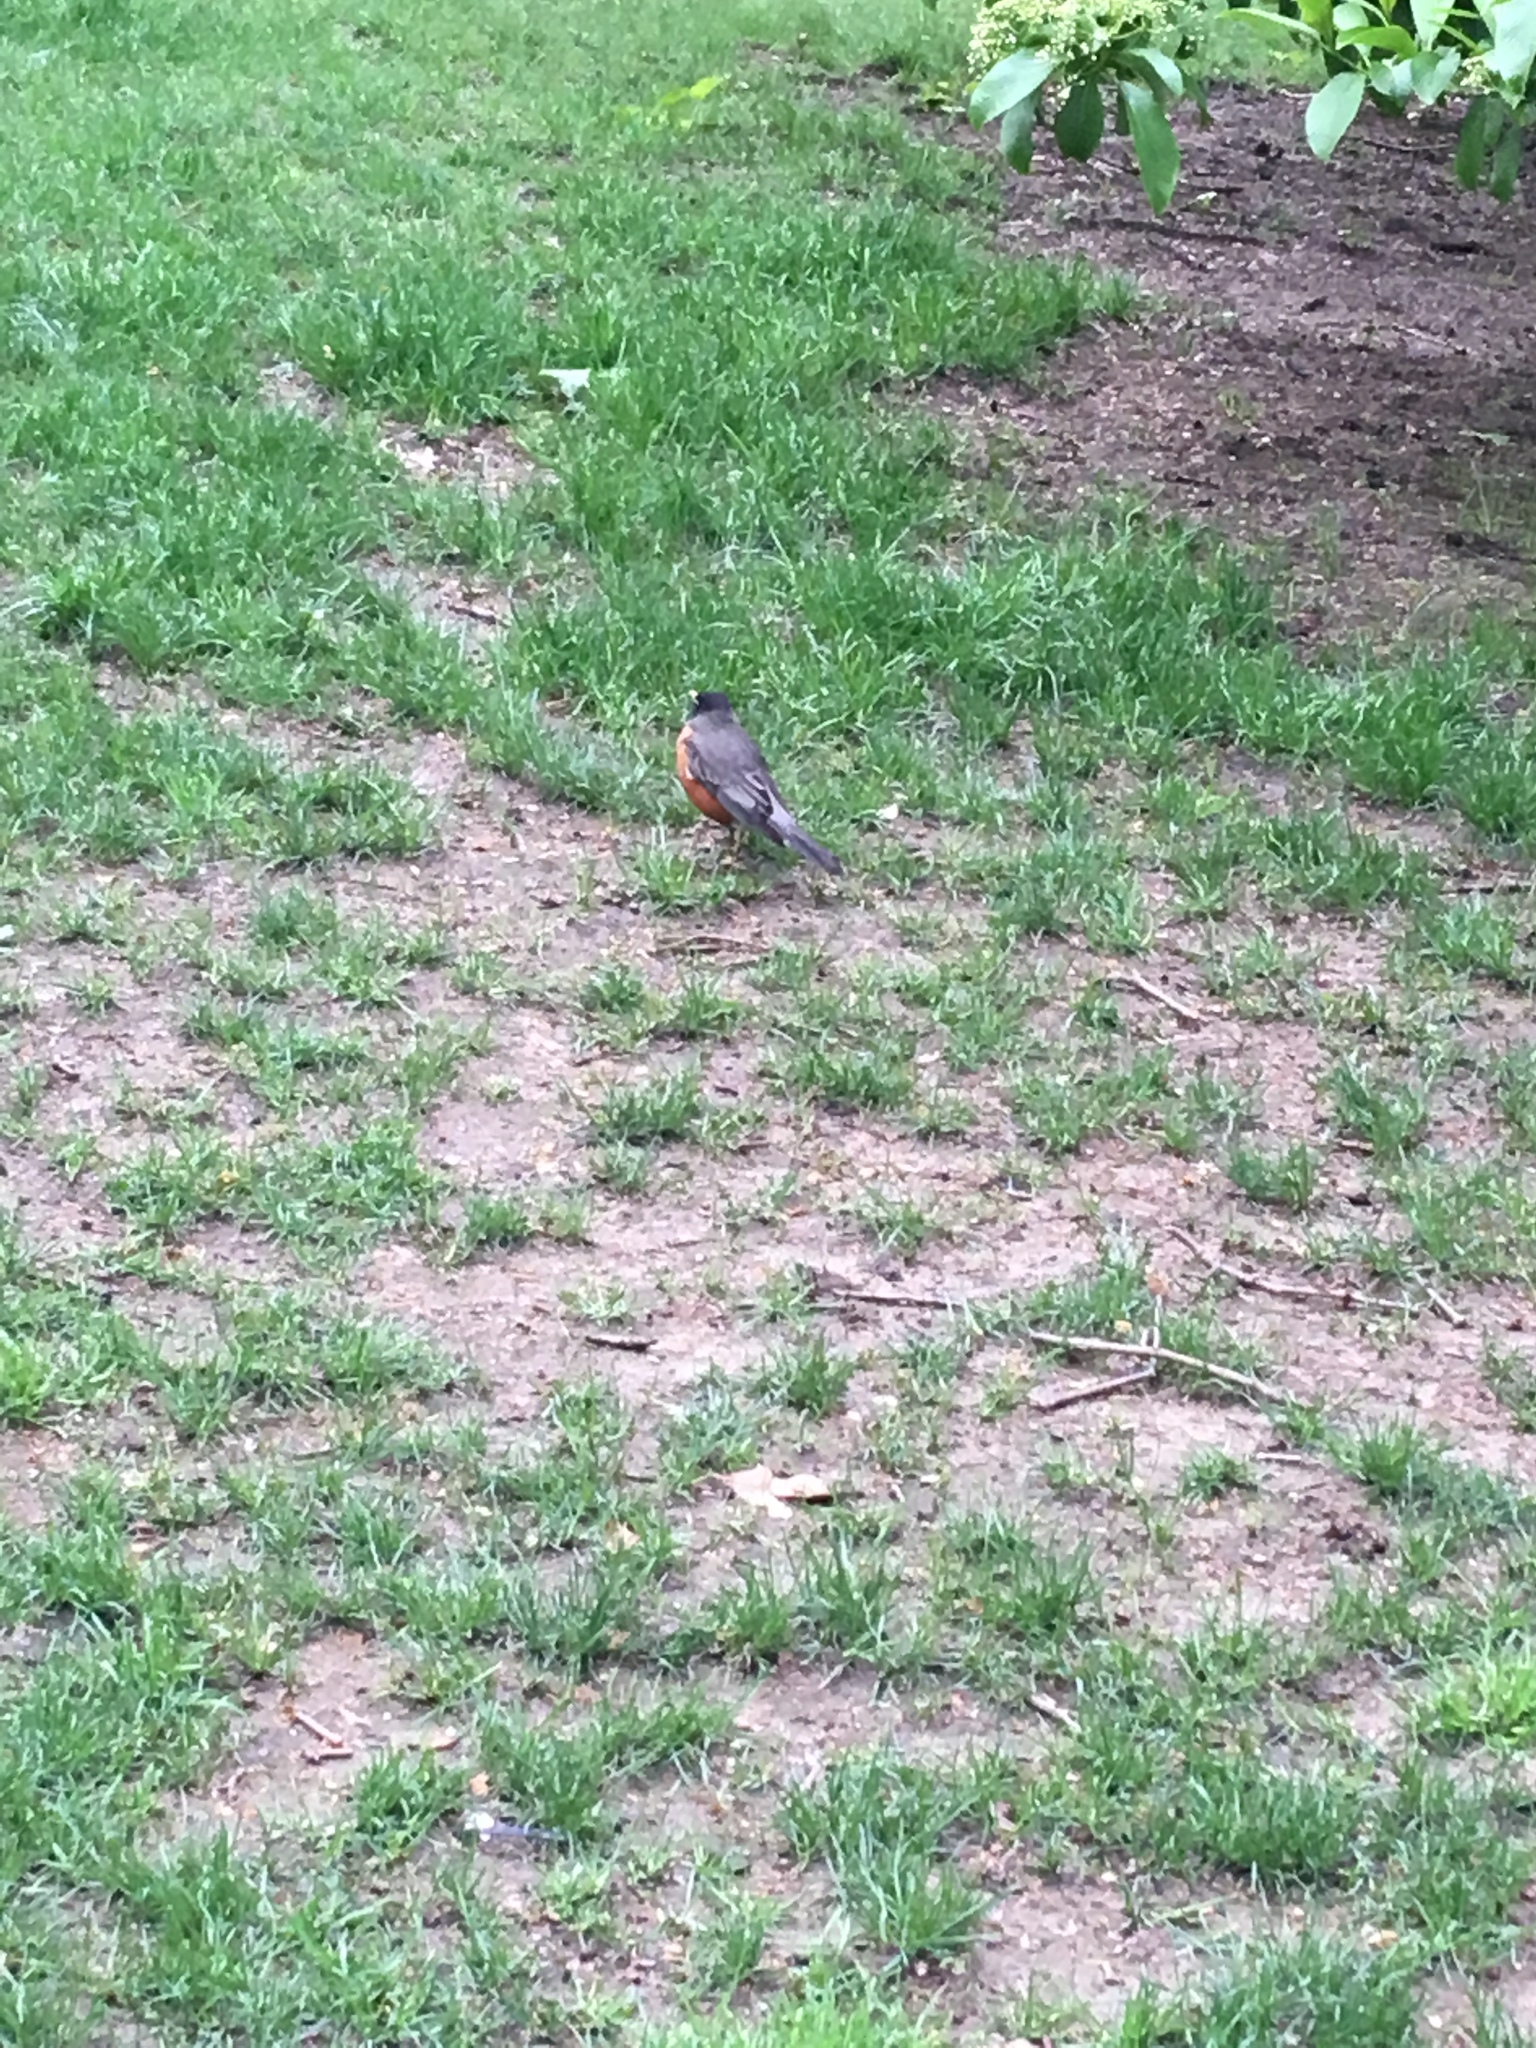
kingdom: Animalia
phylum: Chordata
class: Aves
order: Passeriformes
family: Turdidae
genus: Turdus
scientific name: Turdus migratorius
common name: American robin
